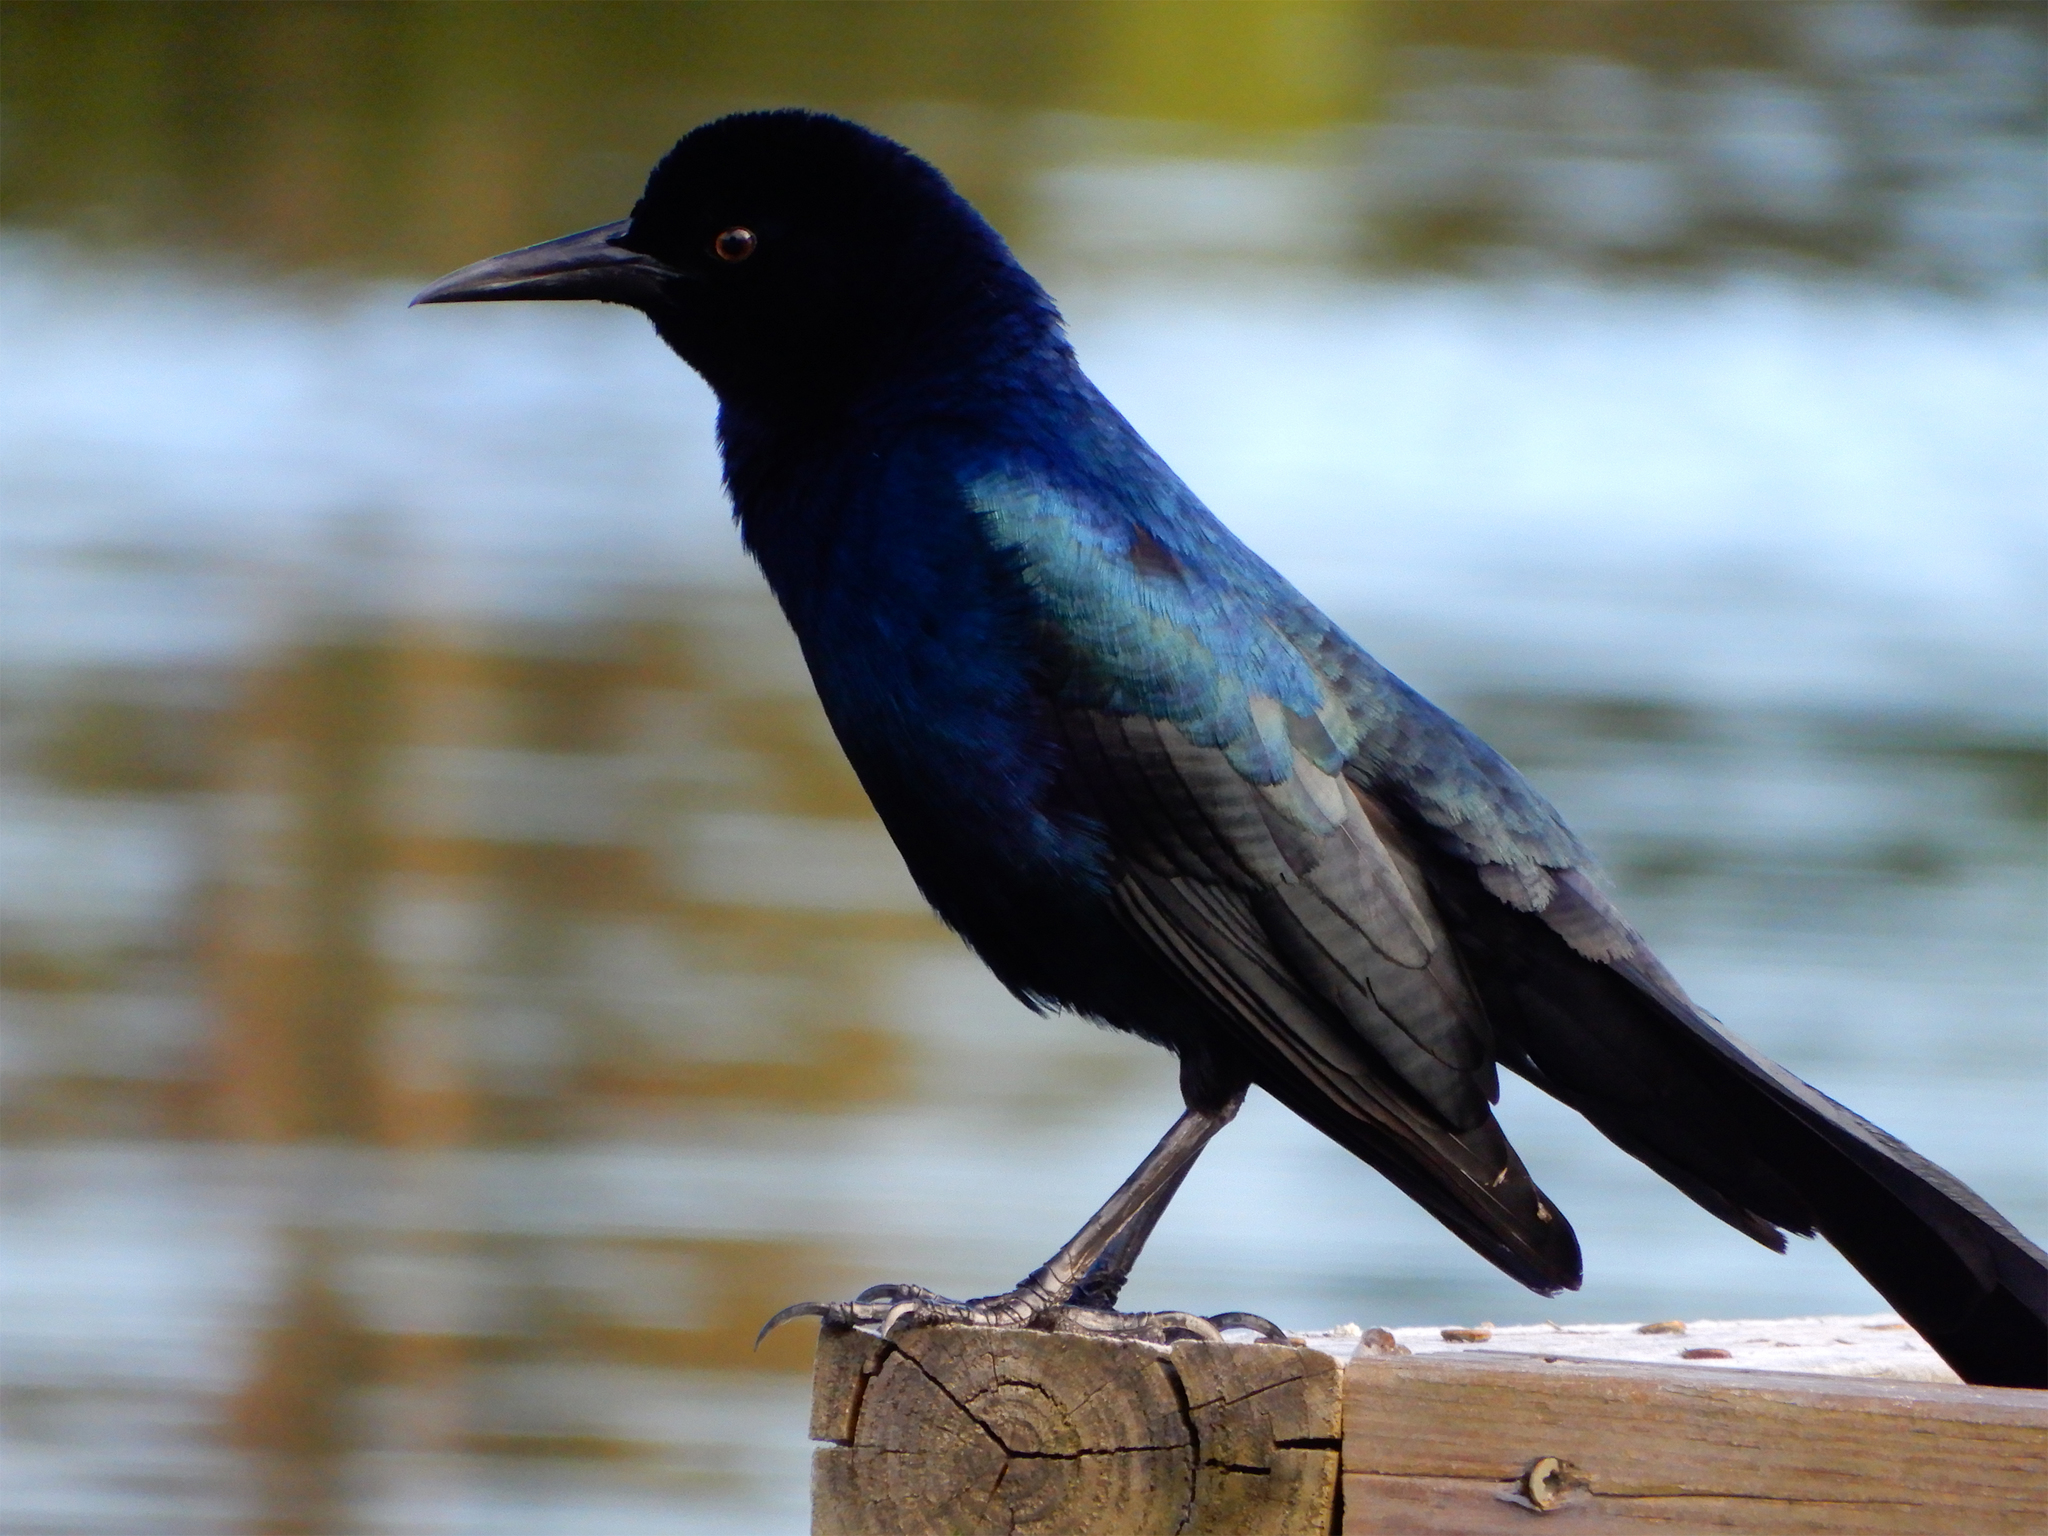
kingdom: Animalia
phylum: Chordata
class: Aves
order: Passeriformes
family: Icteridae
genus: Quiscalus
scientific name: Quiscalus major
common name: Boat-tailed grackle
